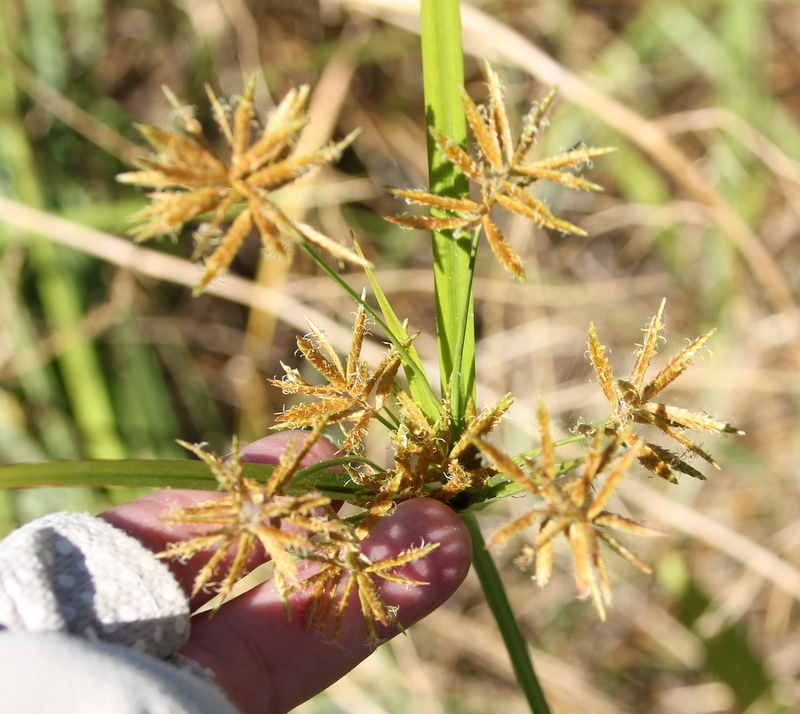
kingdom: Plantae
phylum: Tracheophyta
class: Liliopsida
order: Poales
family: Cyperaceae
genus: Cyperus
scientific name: Cyperus esculentus
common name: Yellow nutsedge
